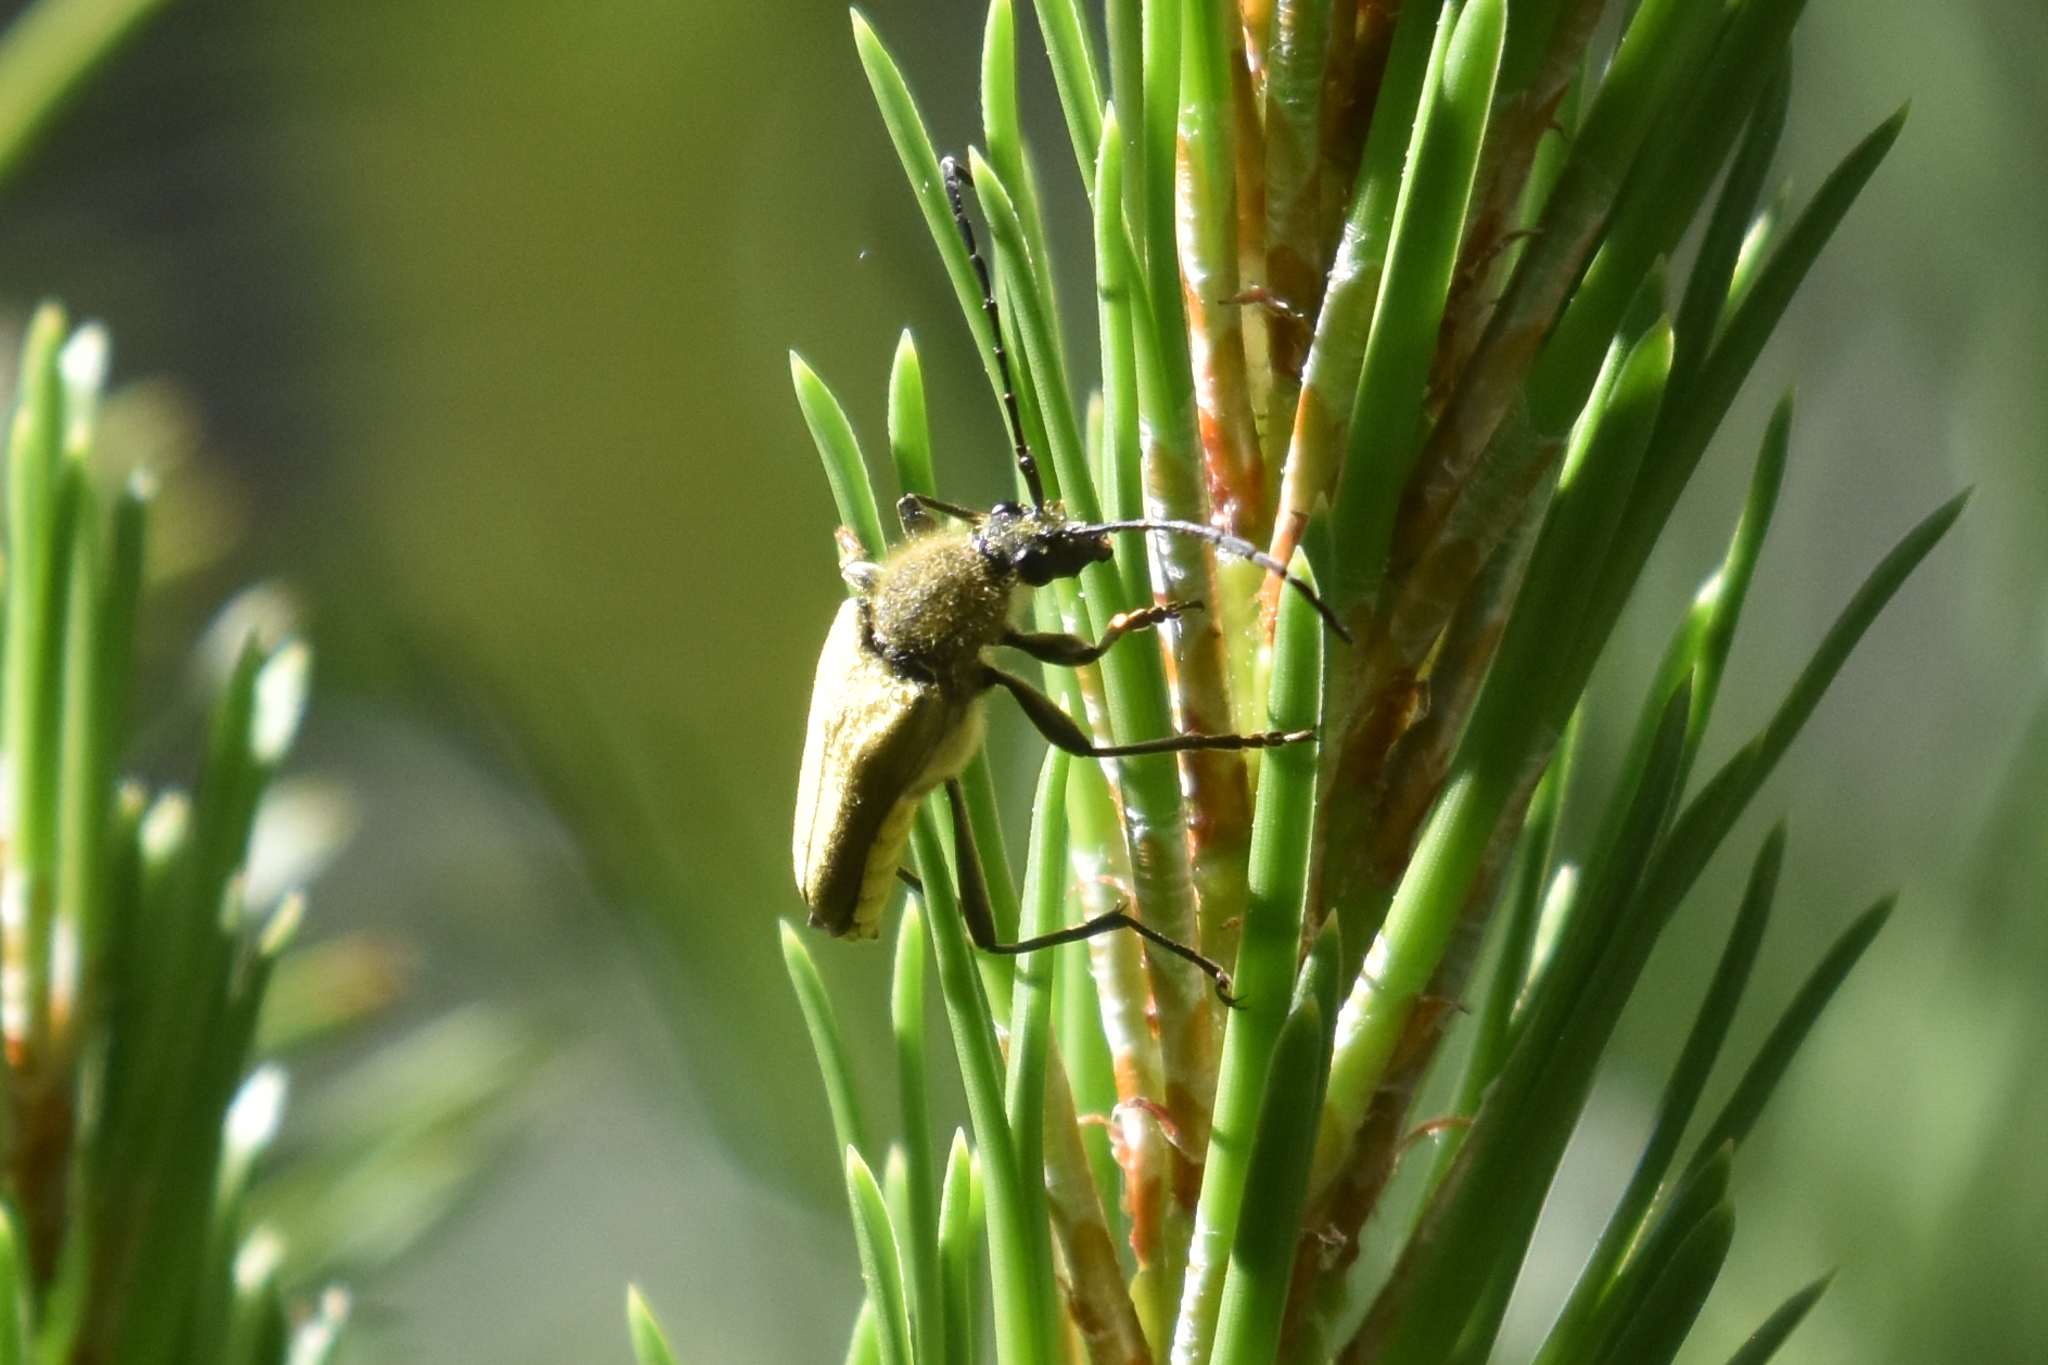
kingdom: Animalia
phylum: Arthropoda
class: Insecta
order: Coleoptera
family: Cerambycidae
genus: Cosmosalia
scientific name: Cosmosalia chrysocoma
